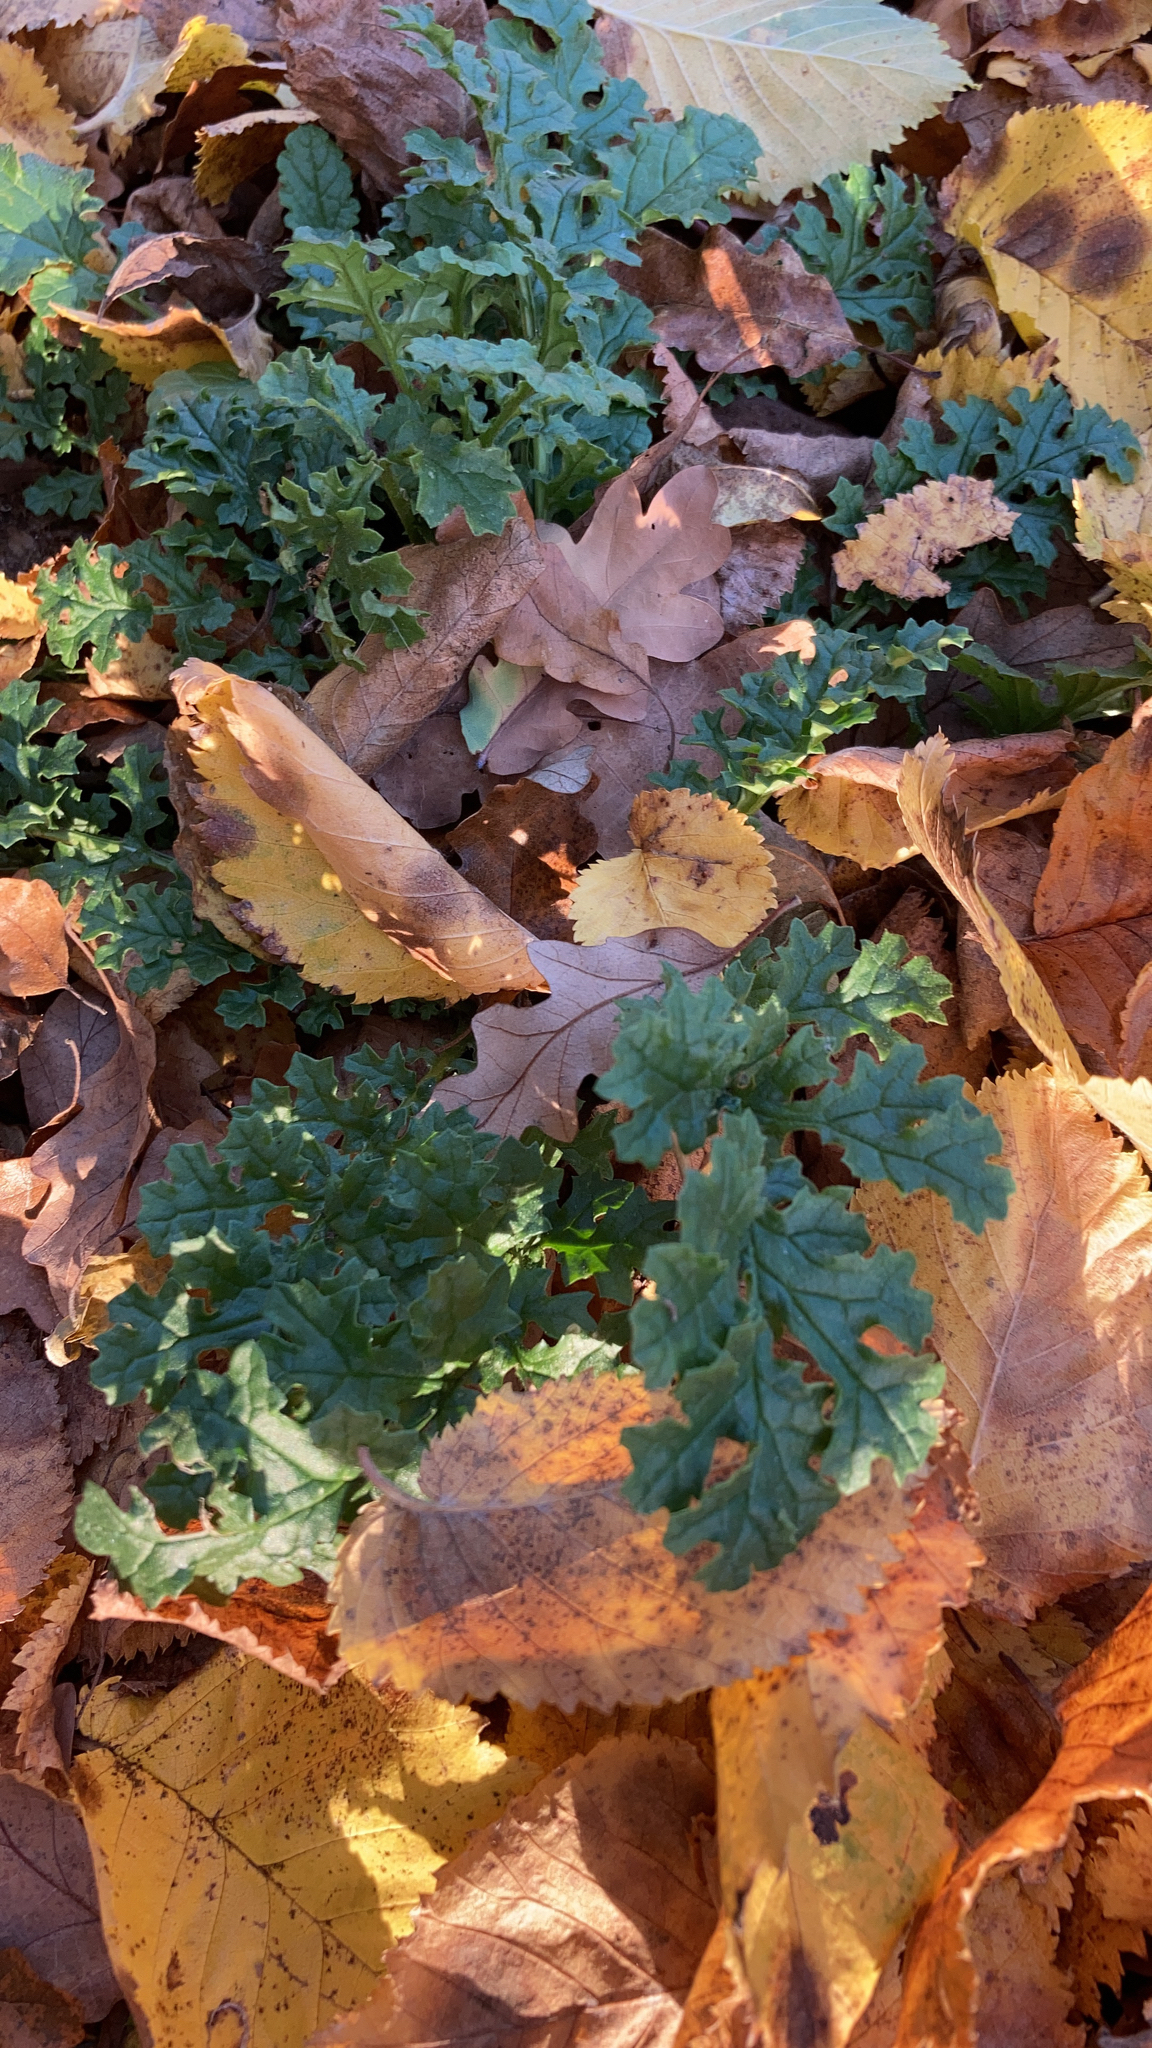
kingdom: Plantae
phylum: Tracheophyta
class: Magnoliopsida
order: Asterales
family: Asteraceae
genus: Jacobaea
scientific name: Jacobaea vulgaris
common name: Stinking willie
